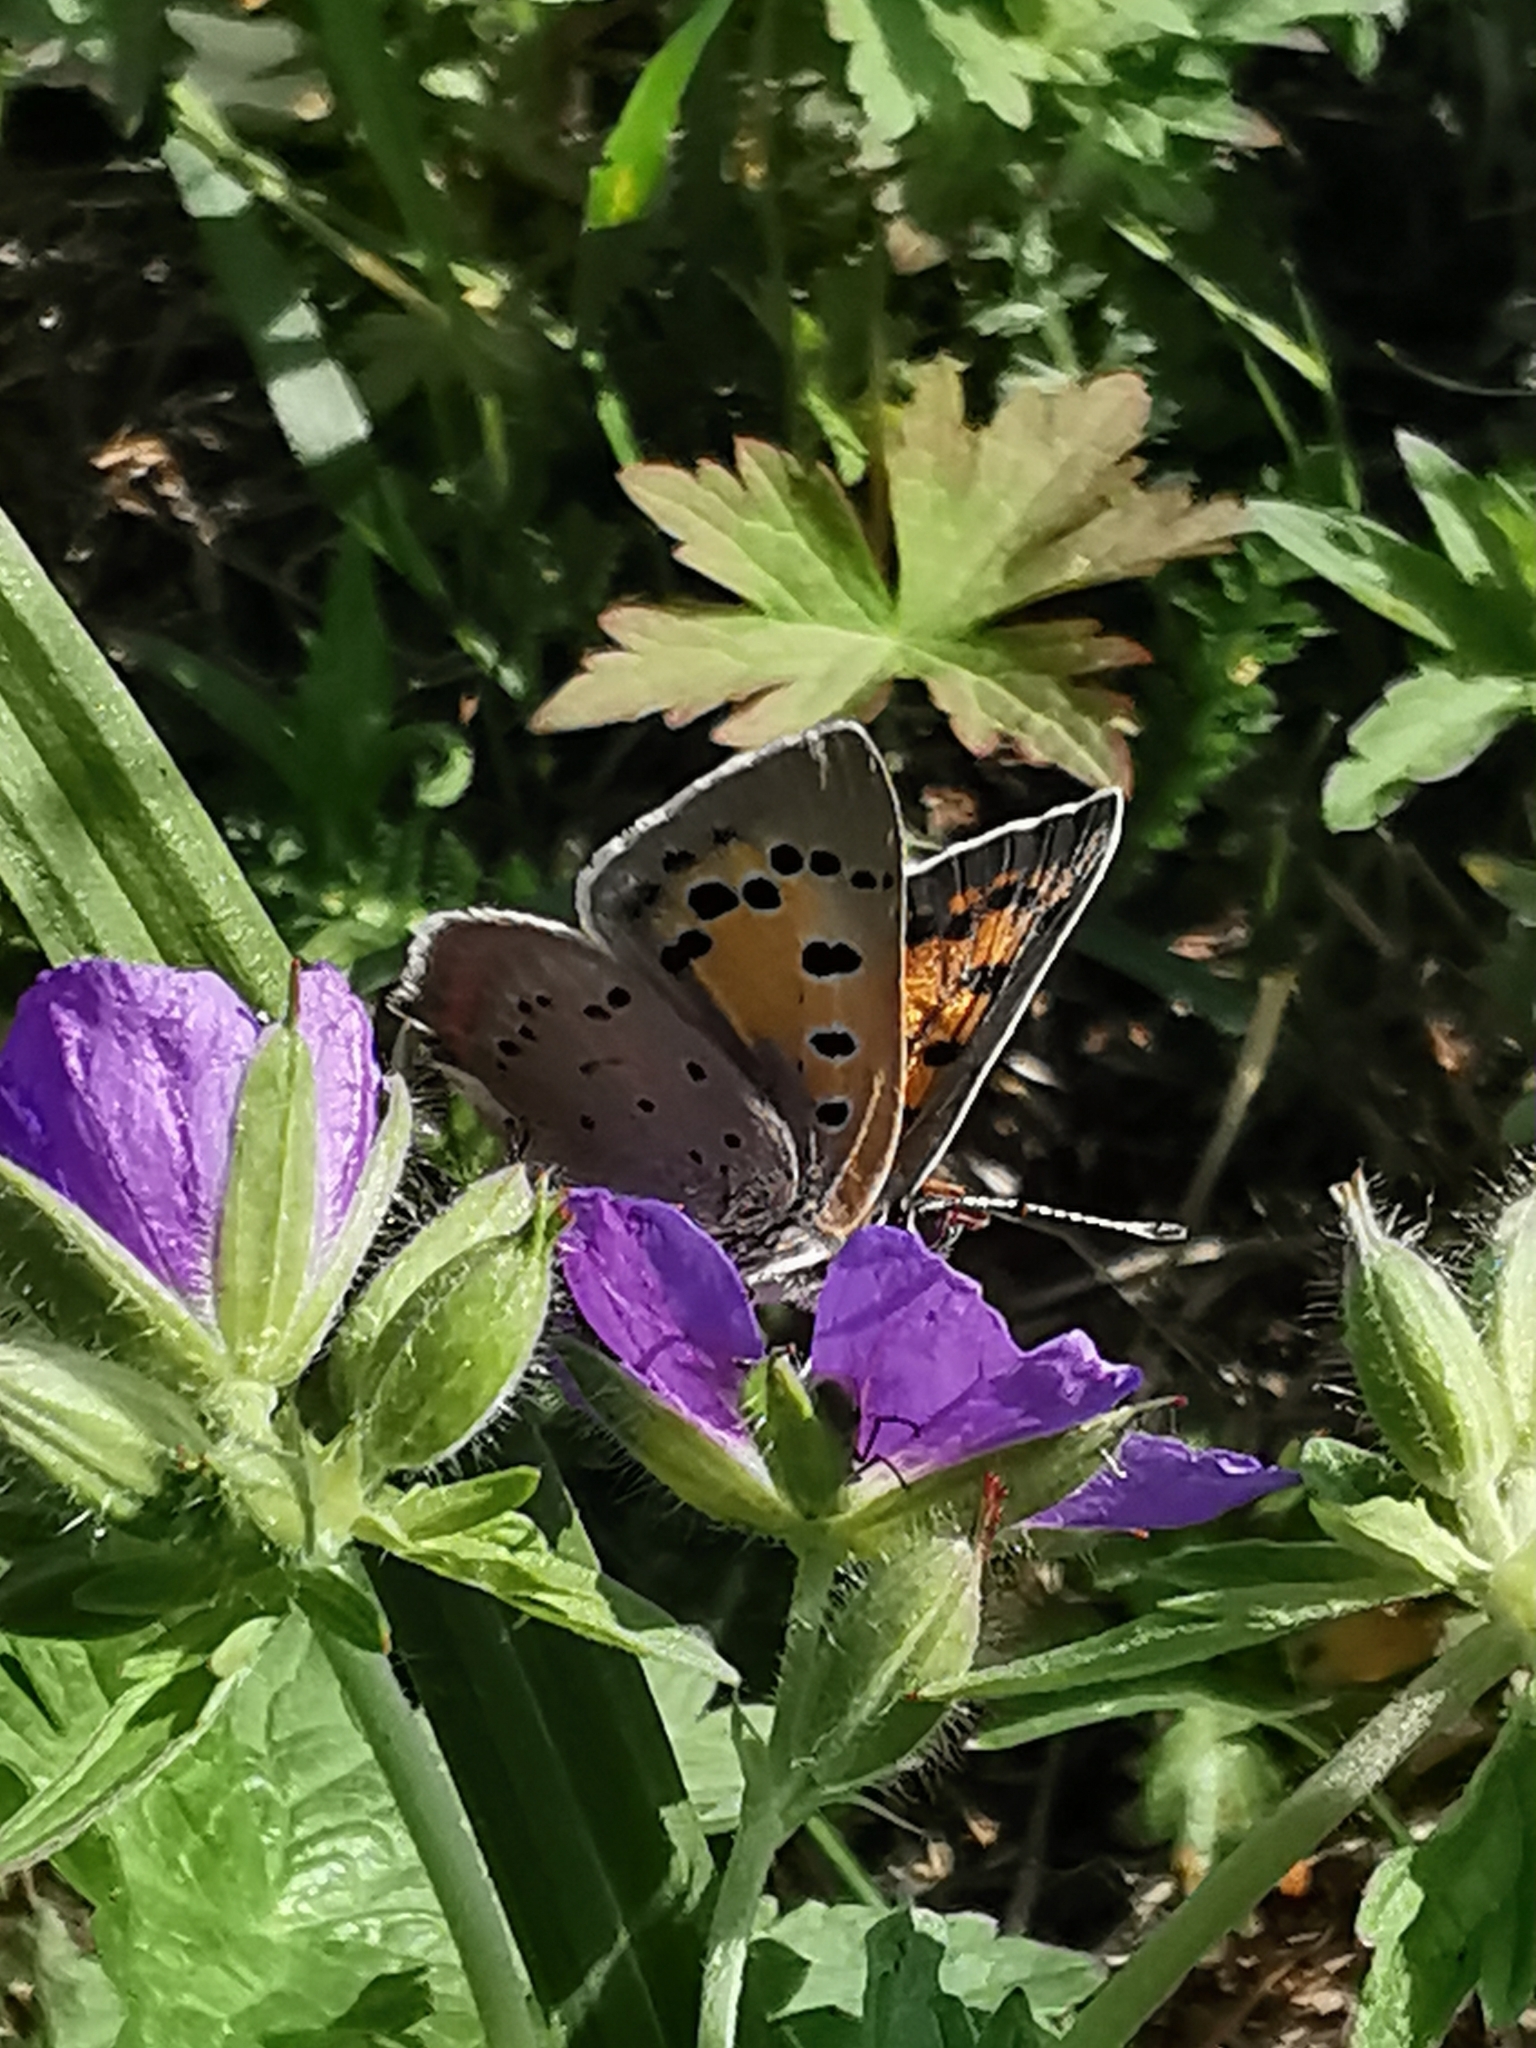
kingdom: Animalia
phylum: Arthropoda
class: Insecta
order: Lepidoptera
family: Lycaenidae
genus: Lycaena
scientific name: Lycaena phlaeas
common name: Small copper
